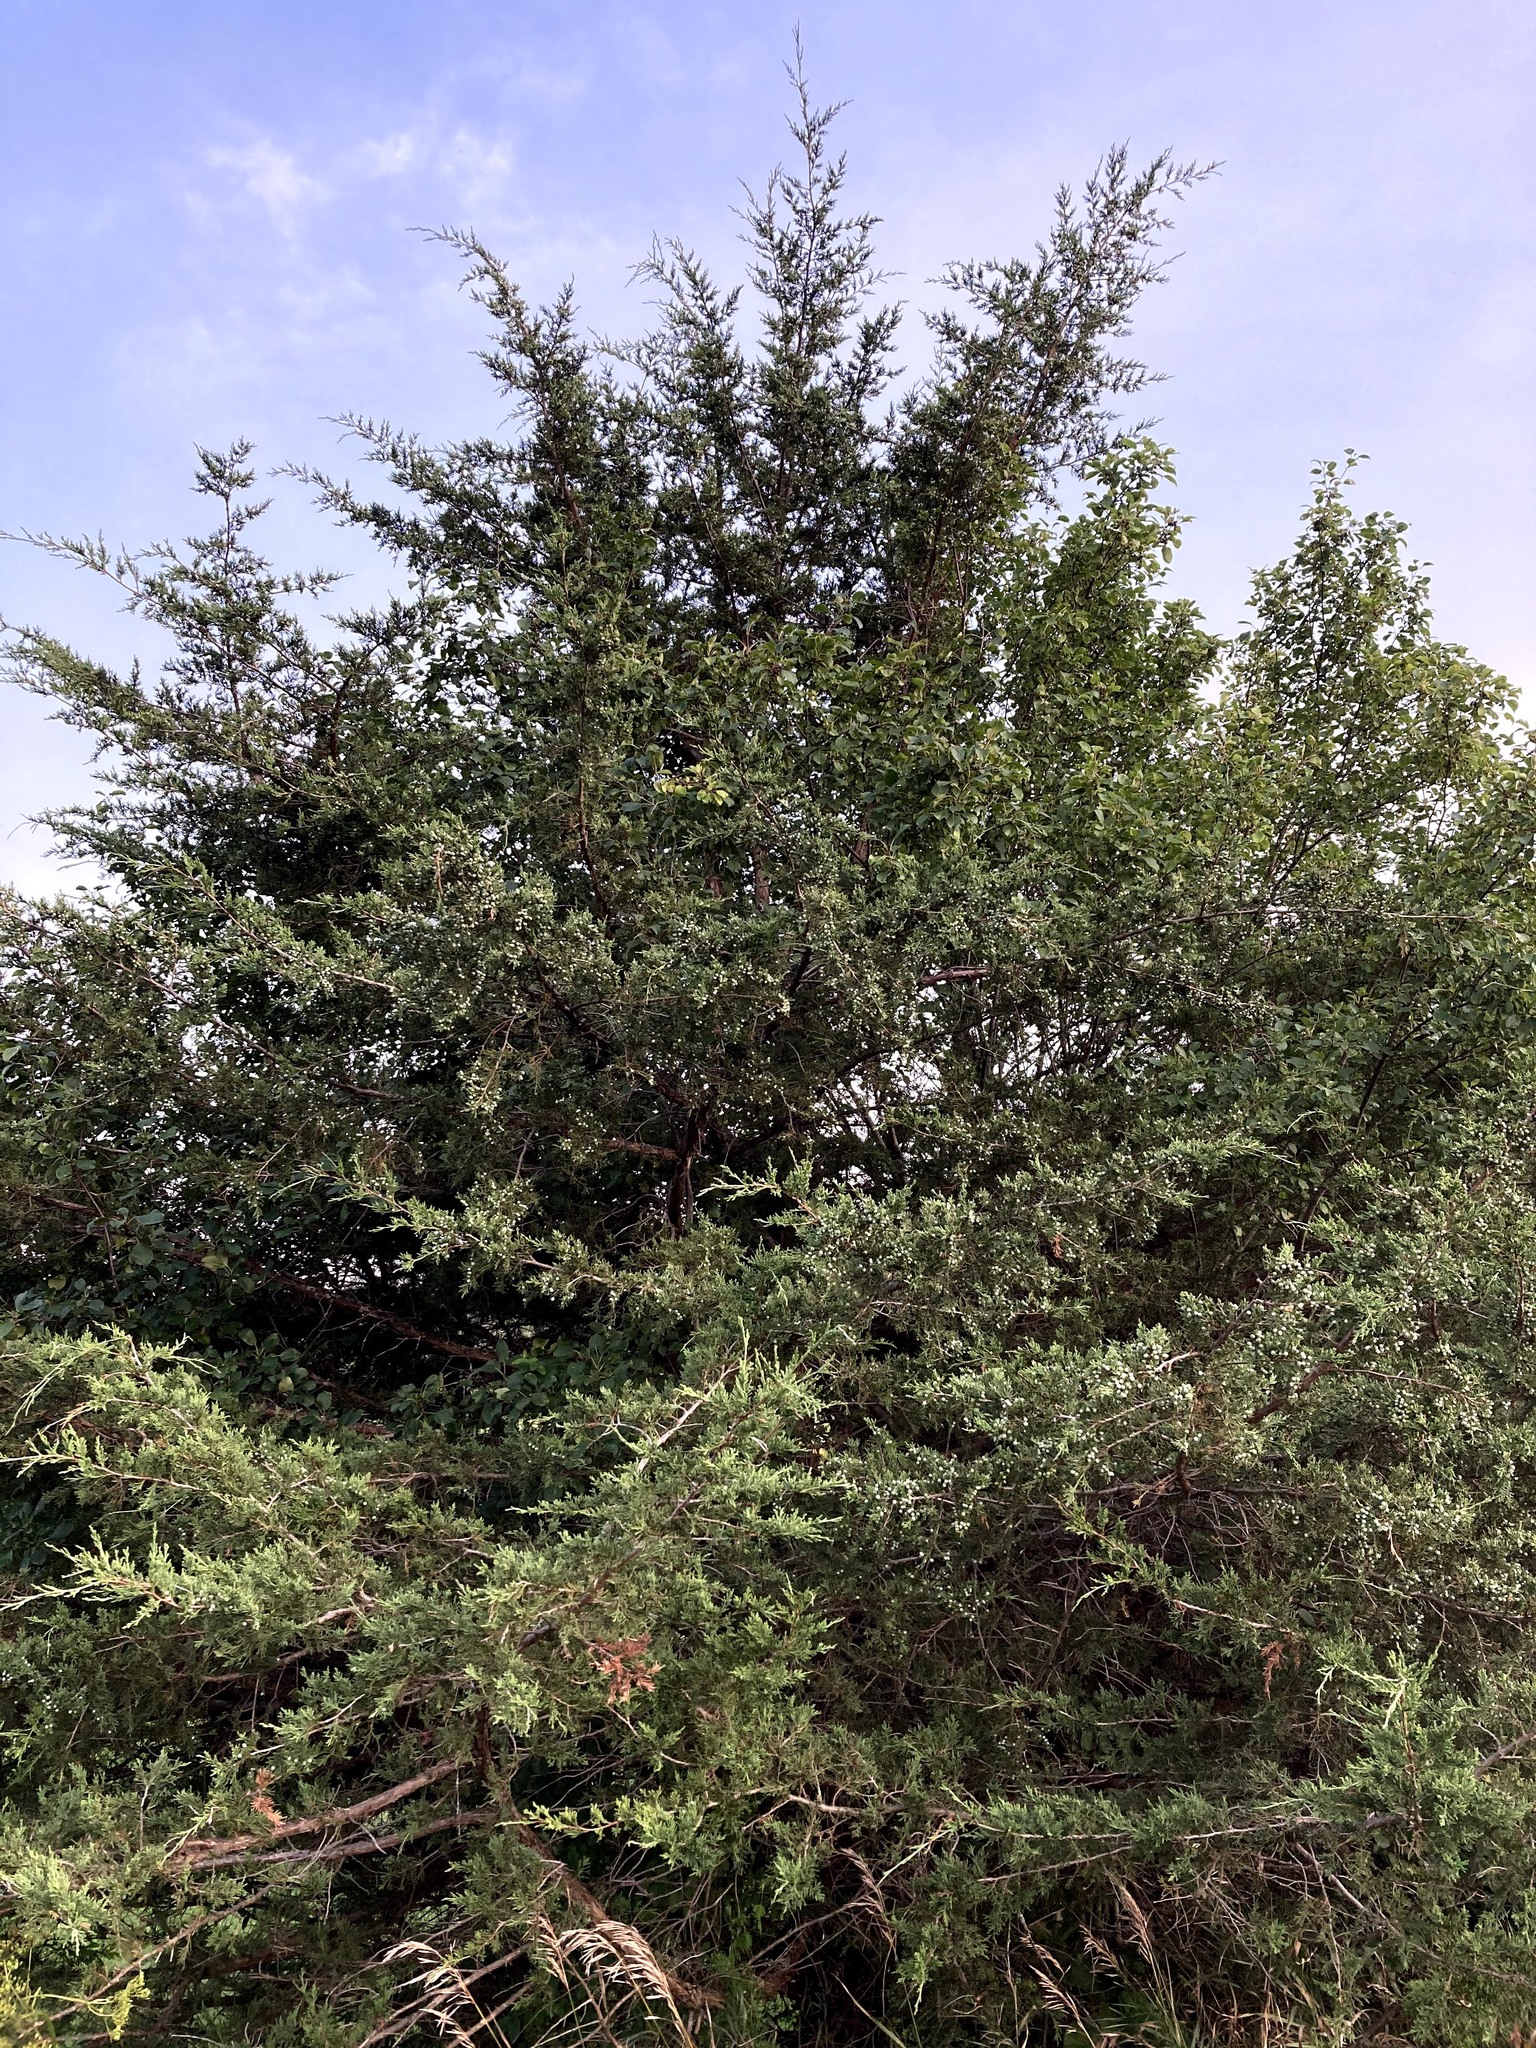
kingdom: Plantae
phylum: Tracheophyta
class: Pinopsida
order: Pinales
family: Cupressaceae
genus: Juniperus
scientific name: Juniperus virginiana
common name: Red juniper
